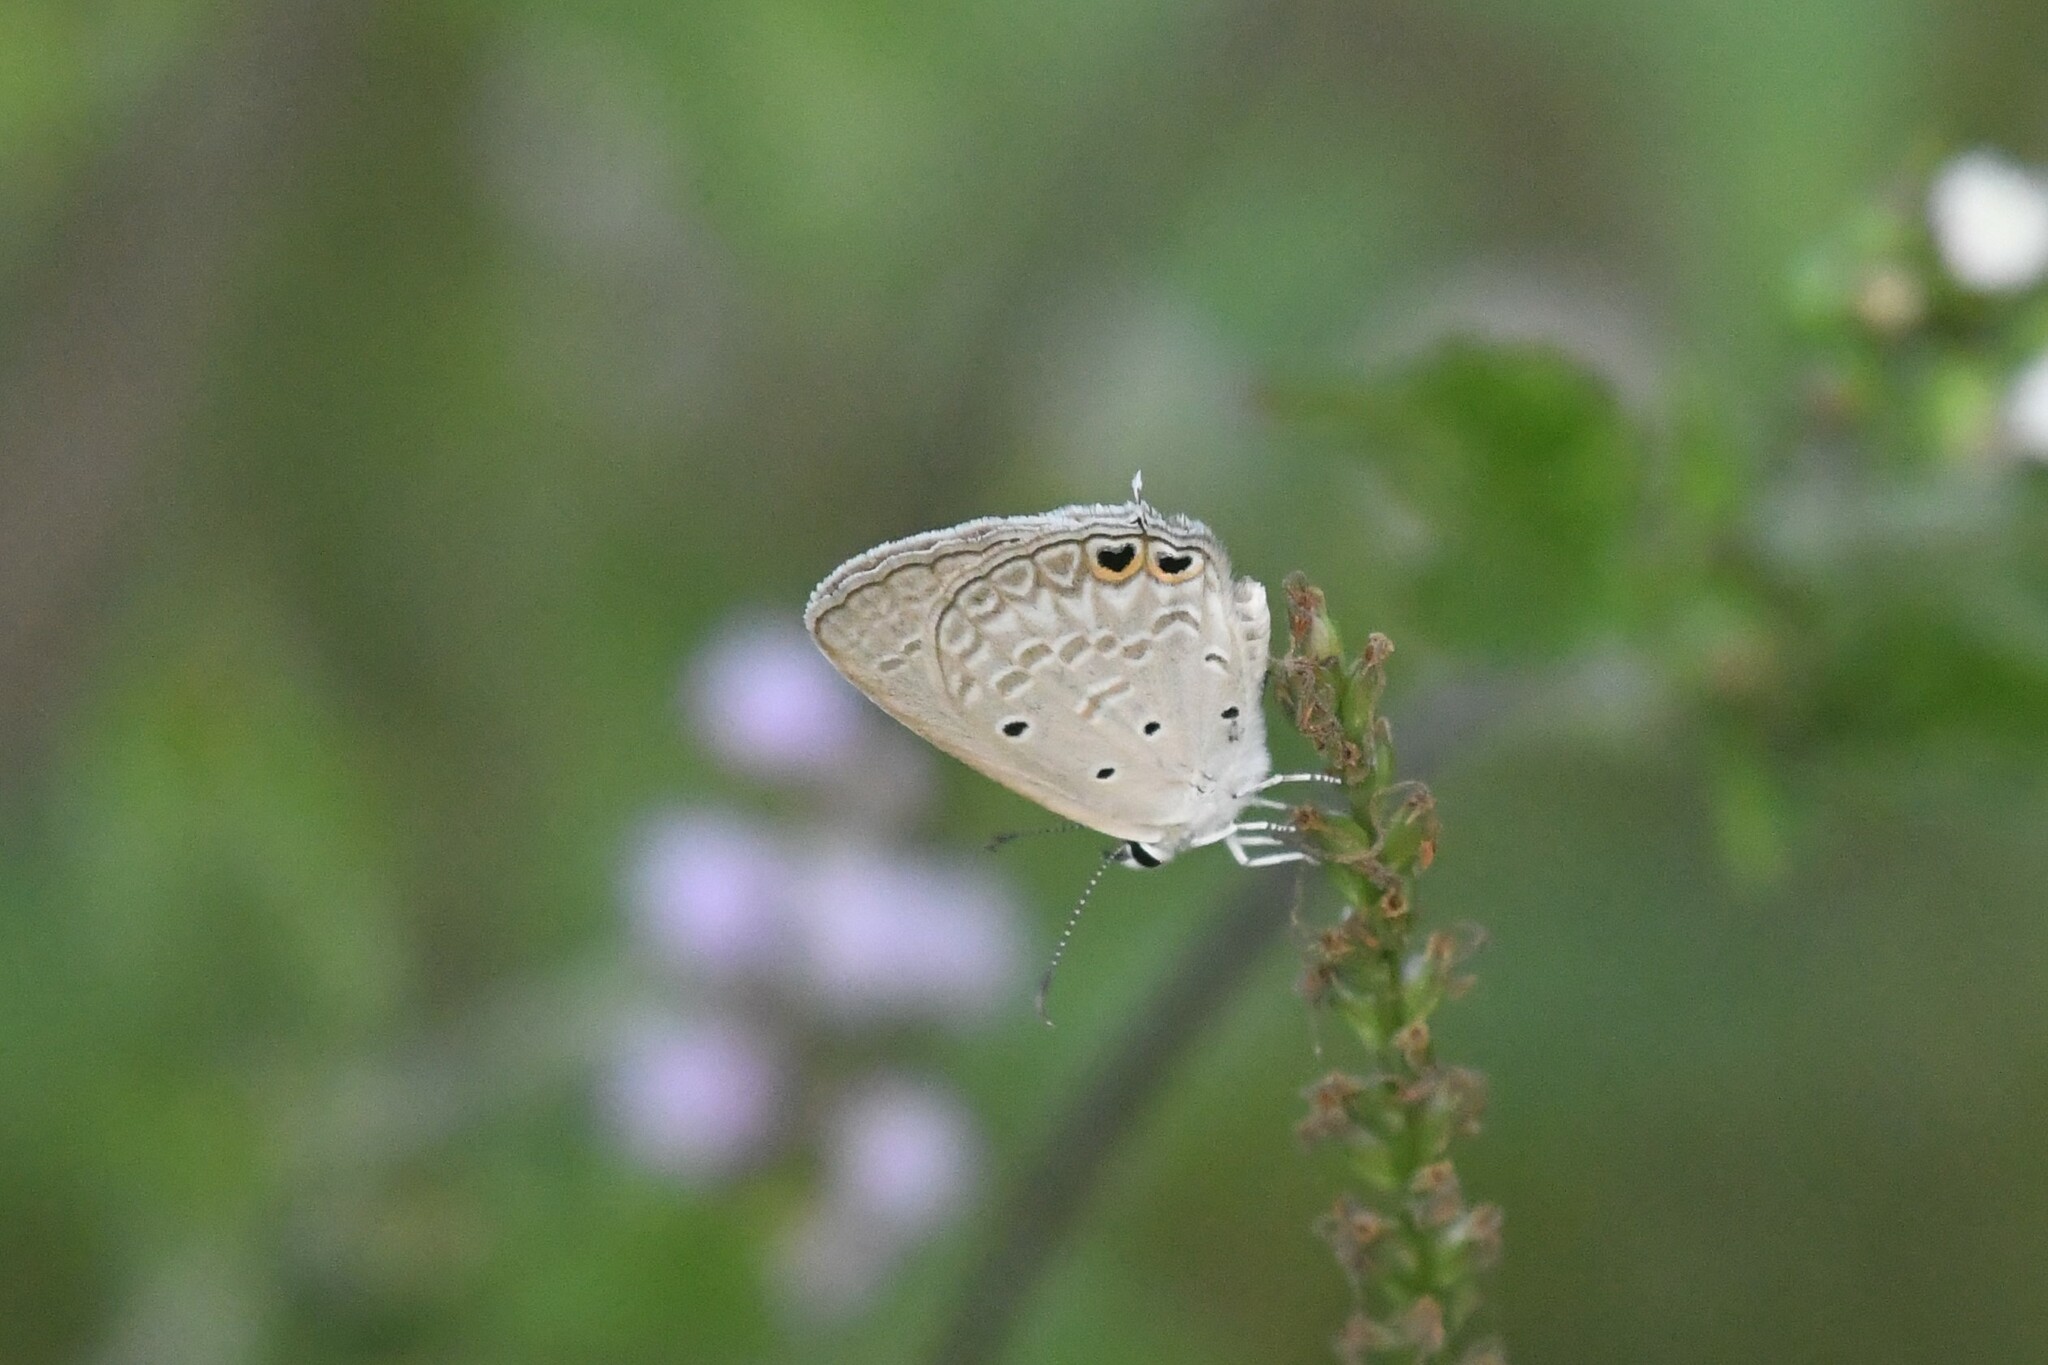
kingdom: Animalia
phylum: Arthropoda
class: Insecta
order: Lepidoptera
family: Lycaenidae
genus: Euchrysops
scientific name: Euchrysops cnejus
